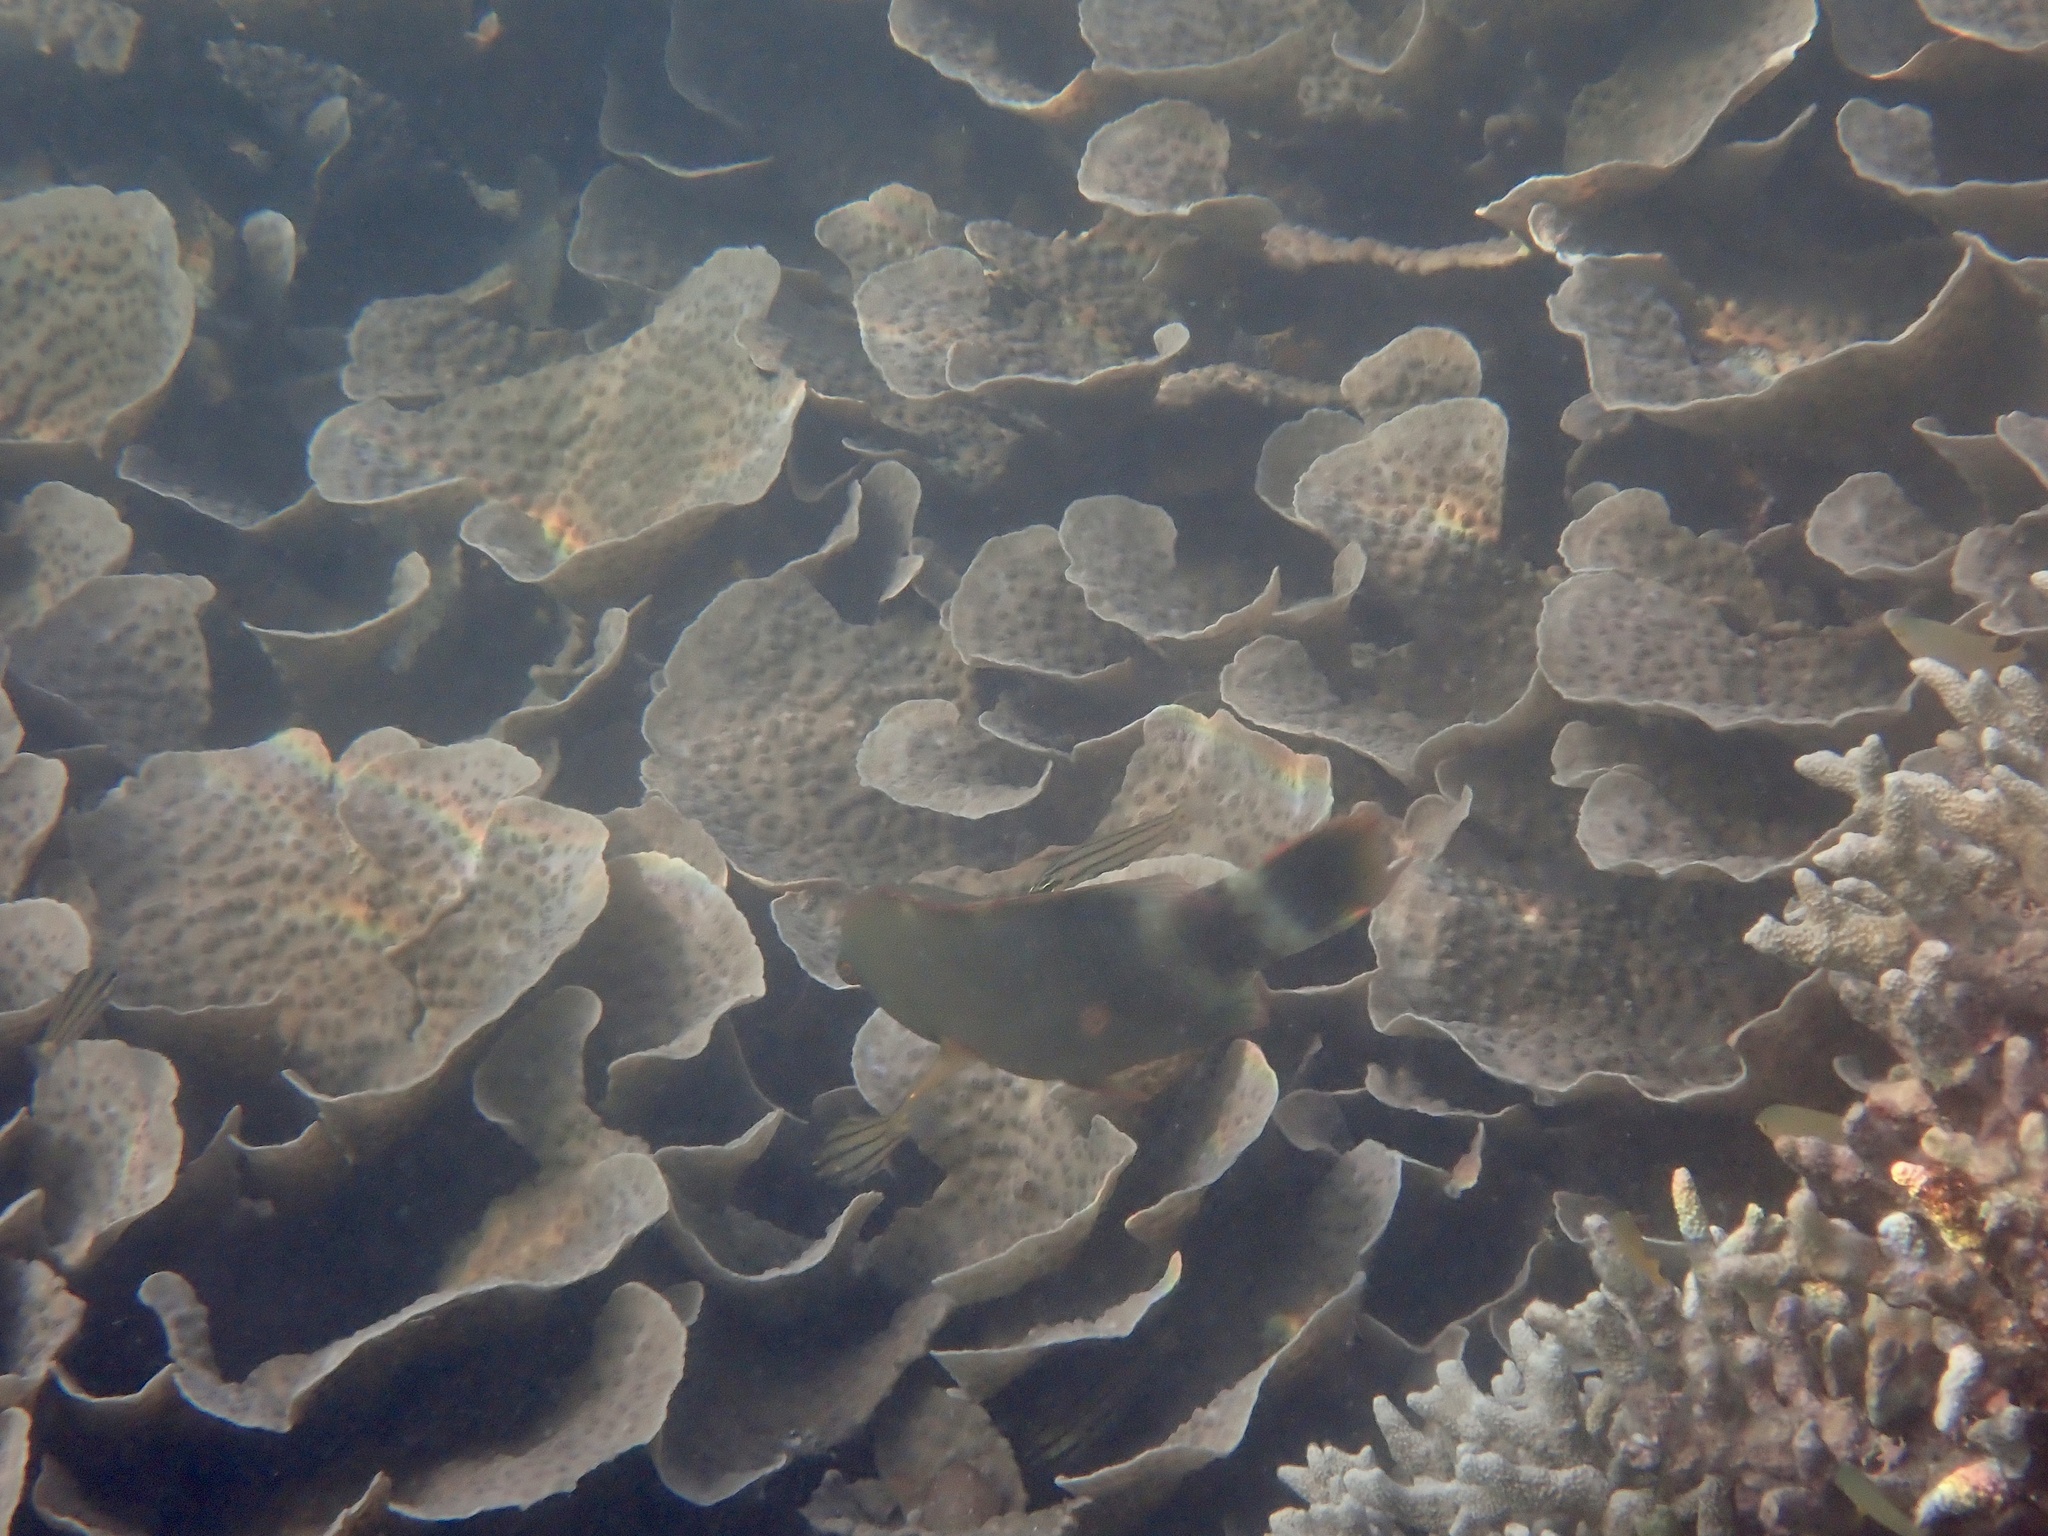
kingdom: Animalia
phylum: Cnidaria
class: Anthozoa
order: Scleractinia
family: Merulinidae
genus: Echinopora
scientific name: Echinopora lamellosa
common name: Hedgehog coral
